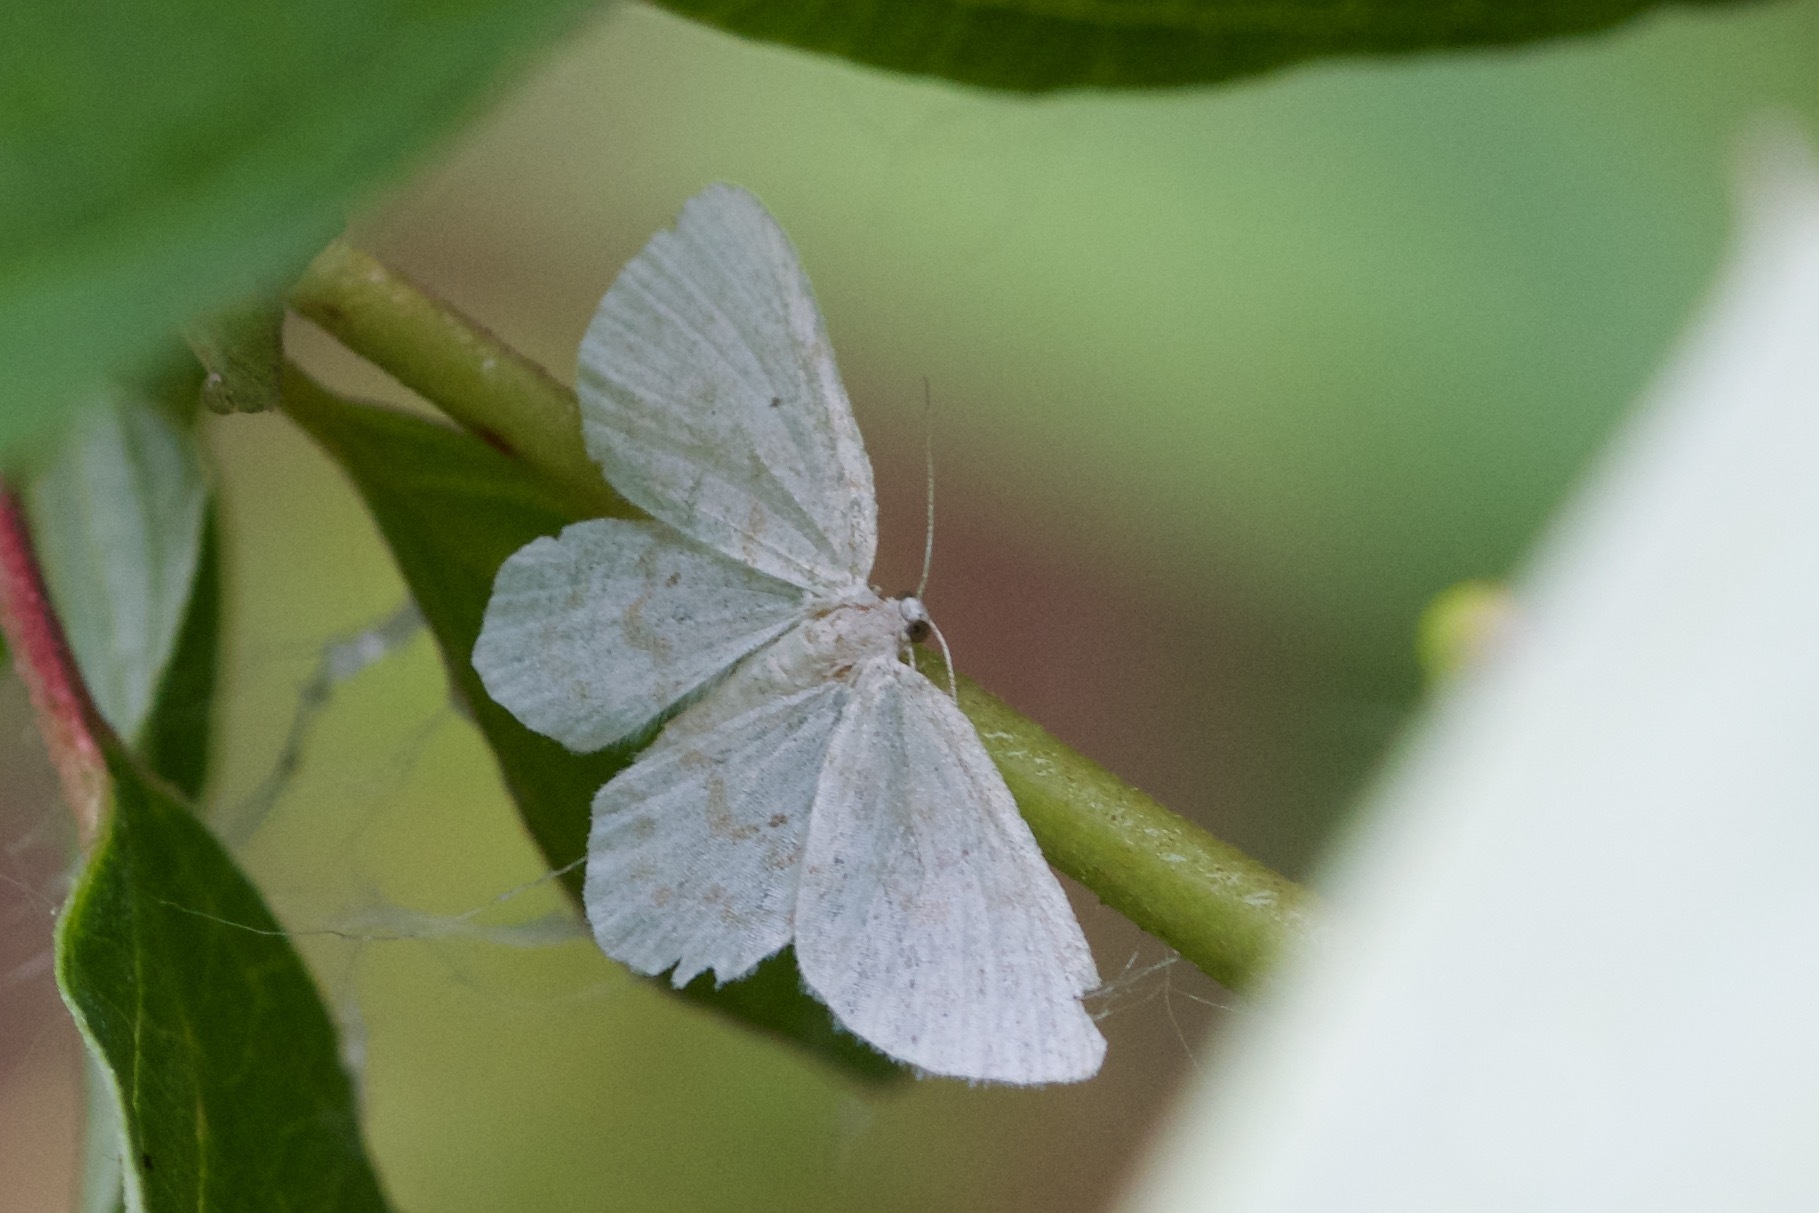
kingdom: Animalia
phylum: Arthropoda
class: Insecta
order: Lepidoptera
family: Geometridae
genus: Hydrelia
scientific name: Hydrelia albifera
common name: Fragile white carpet
